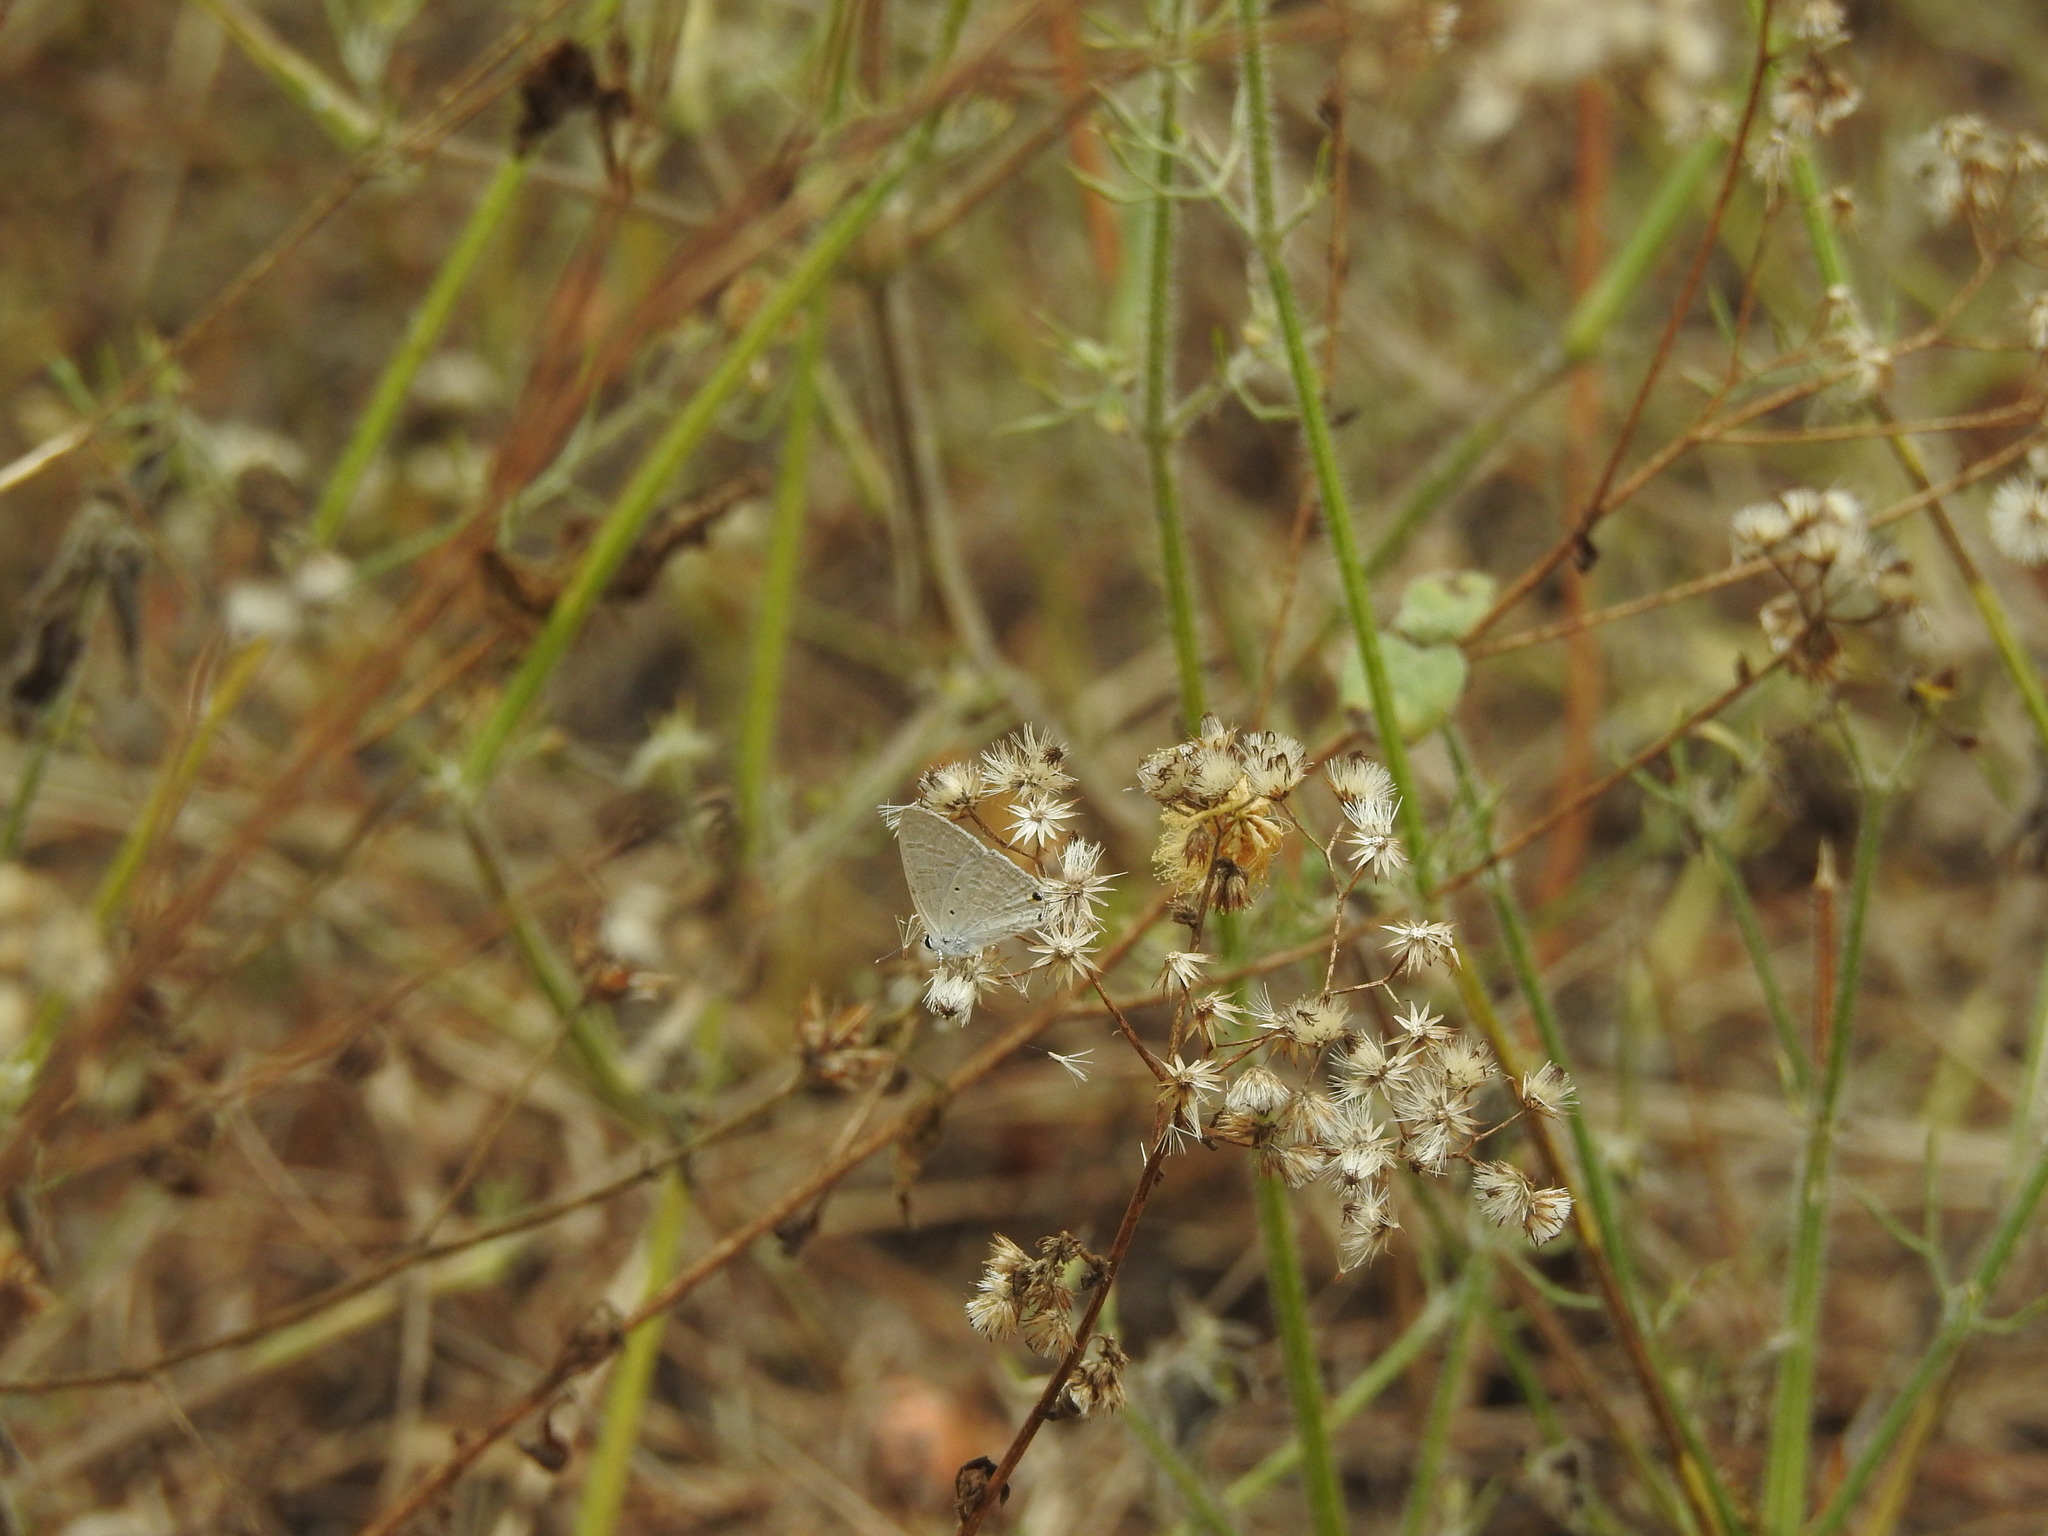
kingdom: Animalia
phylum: Arthropoda
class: Insecta
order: Lepidoptera
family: Lycaenidae
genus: Catochrysops
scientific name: Catochrysops strabo
